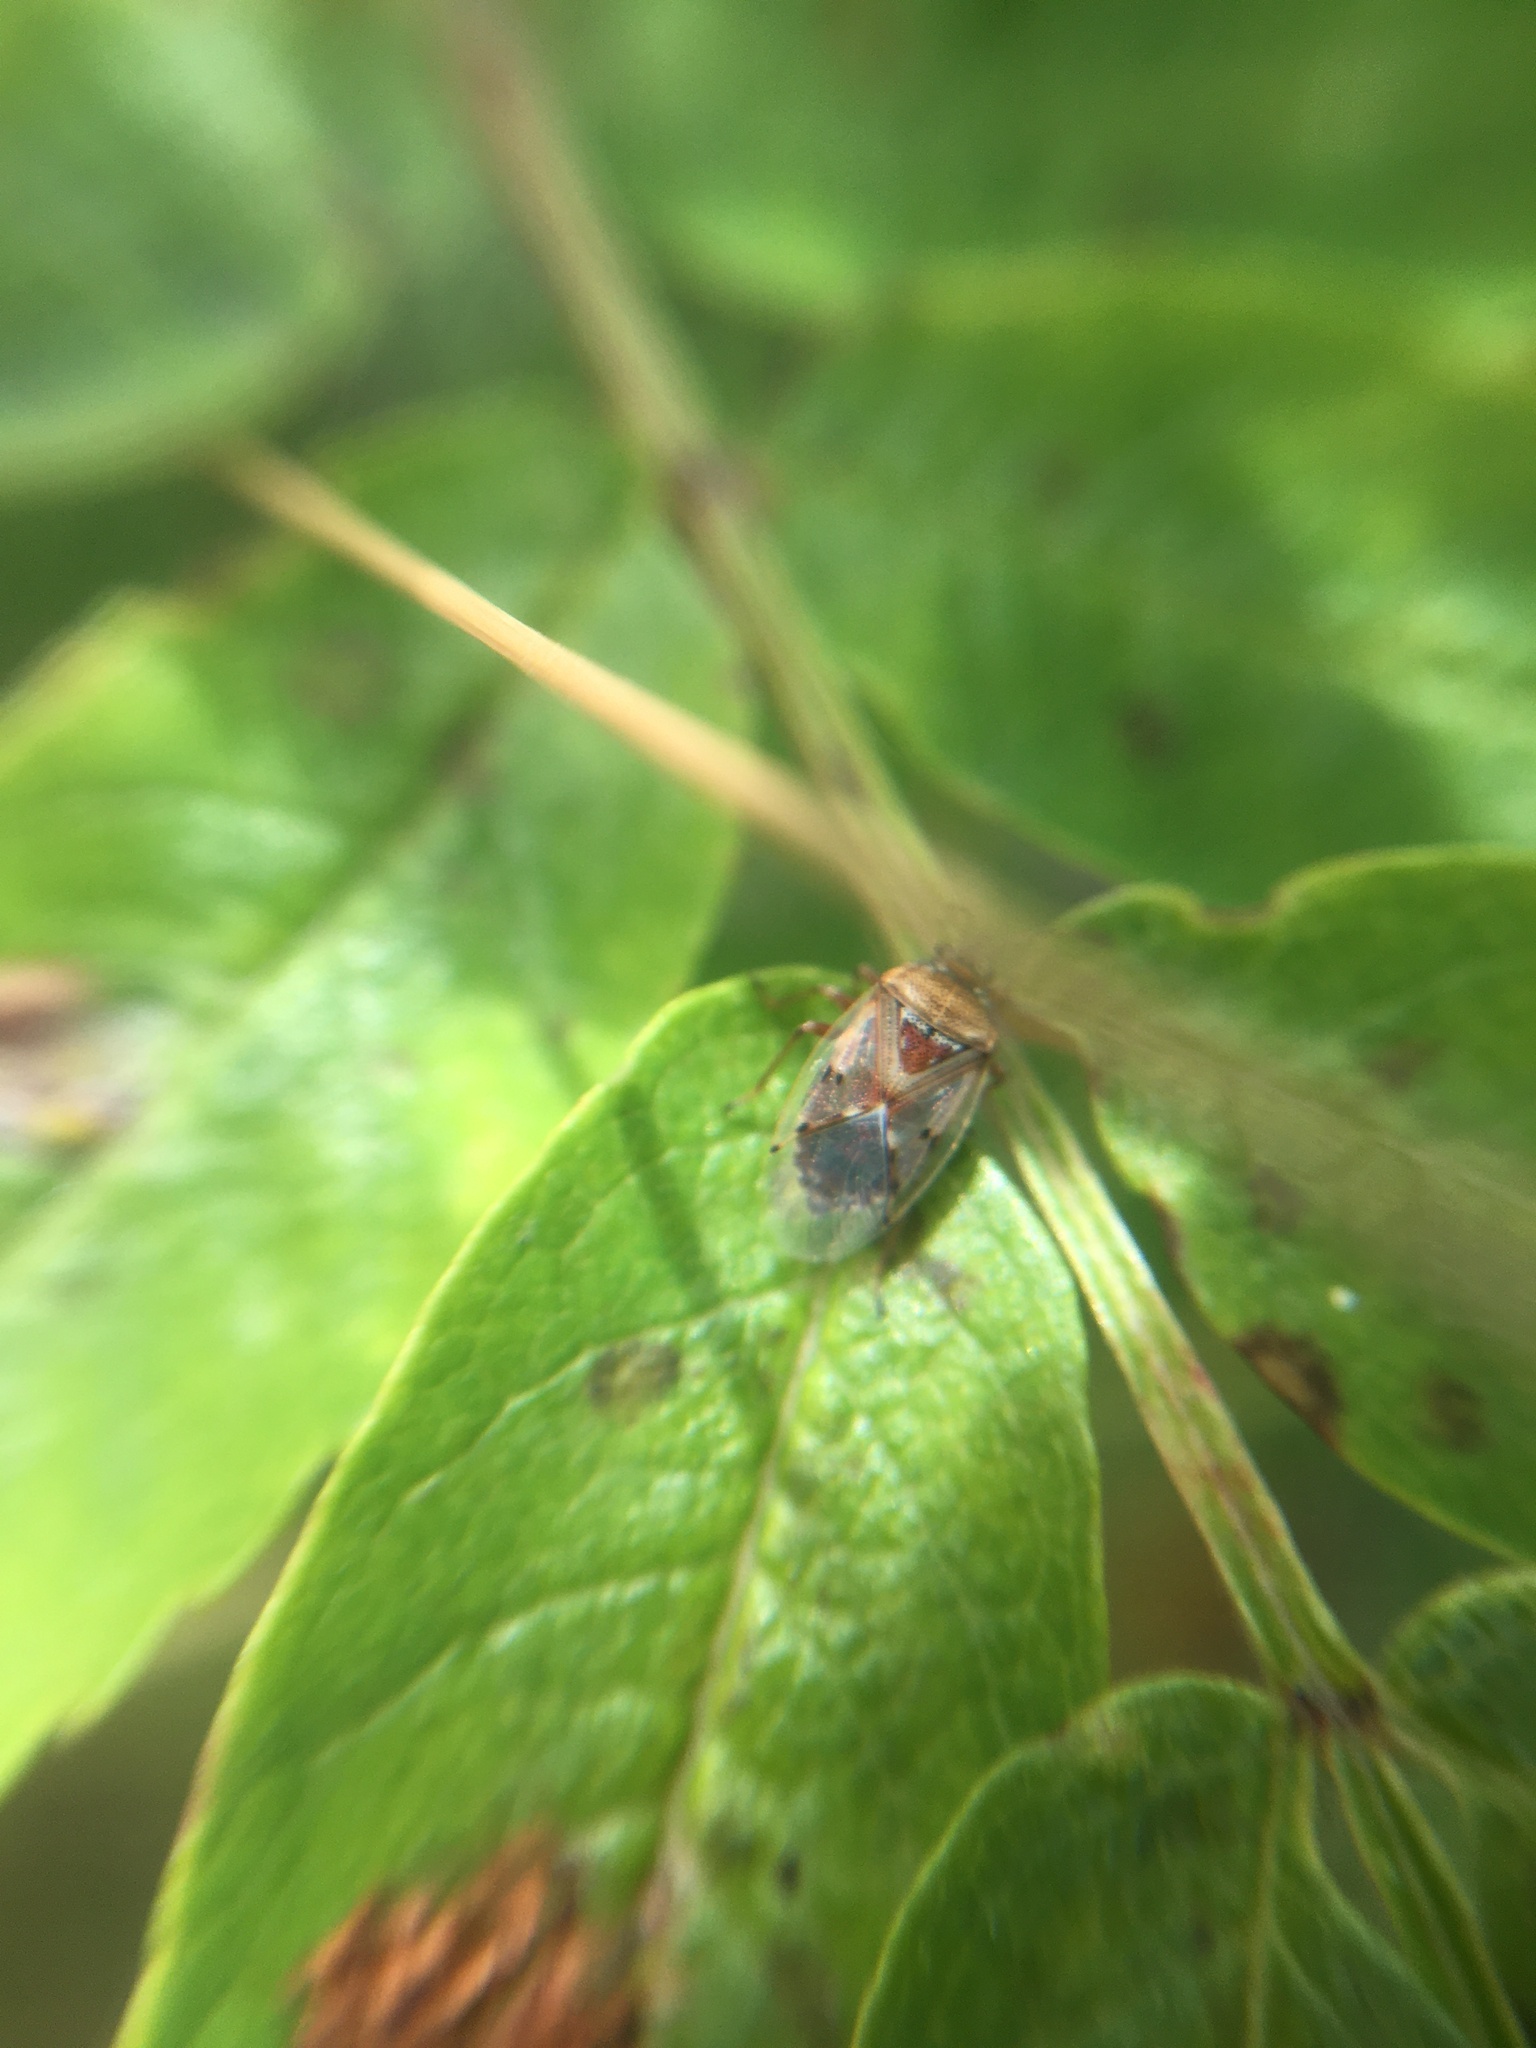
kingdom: Animalia
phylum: Arthropoda
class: Insecta
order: Hemiptera
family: Lygaeidae
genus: Kleidocerys
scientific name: Kleidocerys resedae
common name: Birch catkin bug
